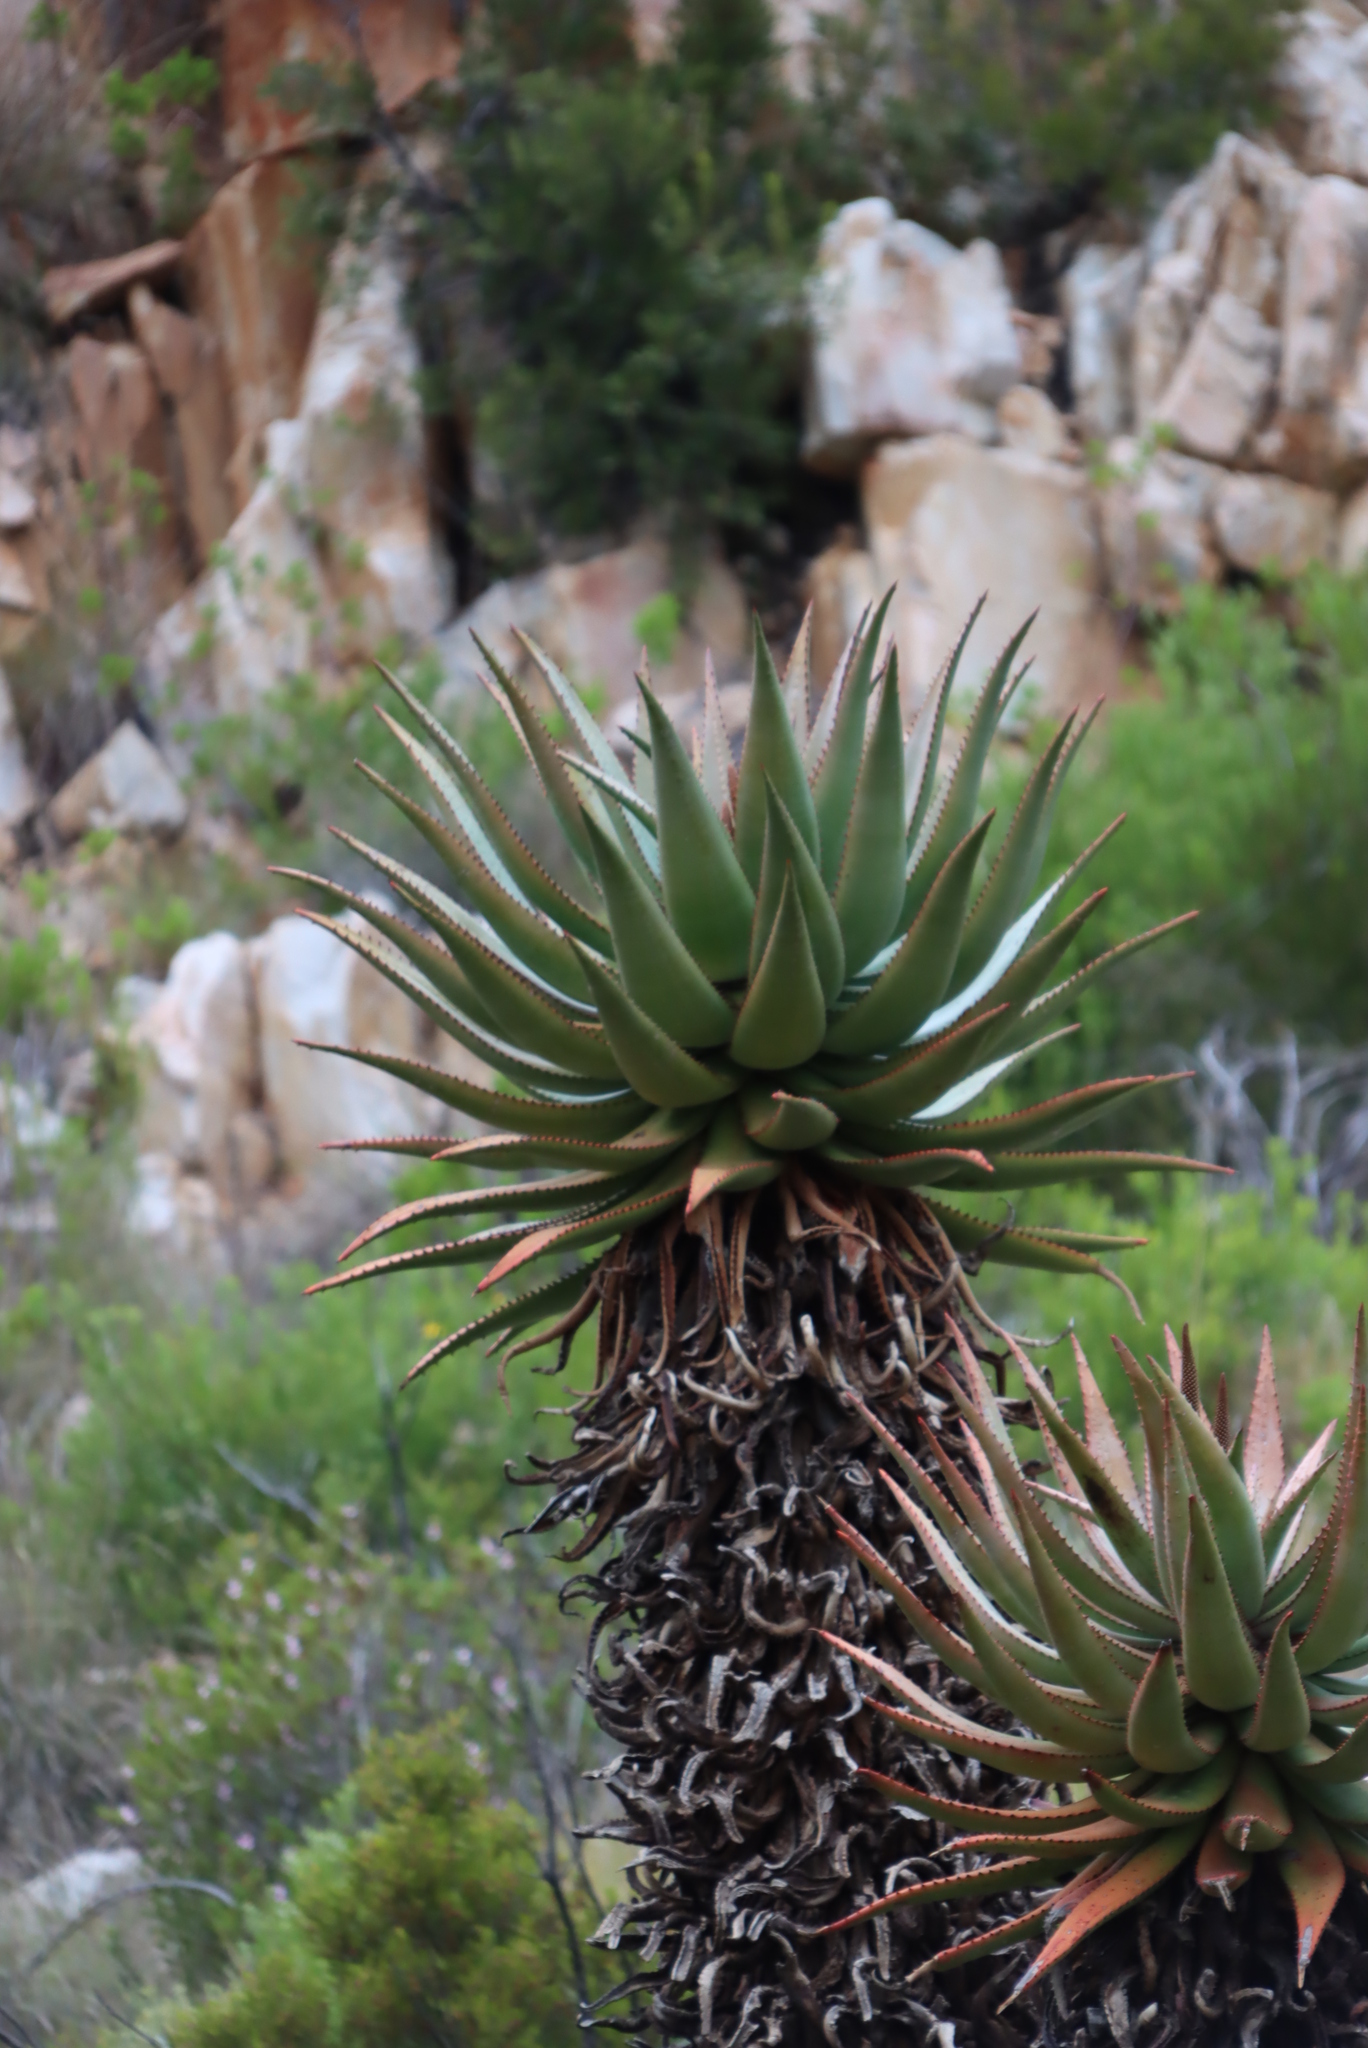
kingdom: Plantae
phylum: Tracheophyta
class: Liliopsida
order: Asparagales
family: Asphodelaceae
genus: Aloe
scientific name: Aloe ferox
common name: Bitter aloe
